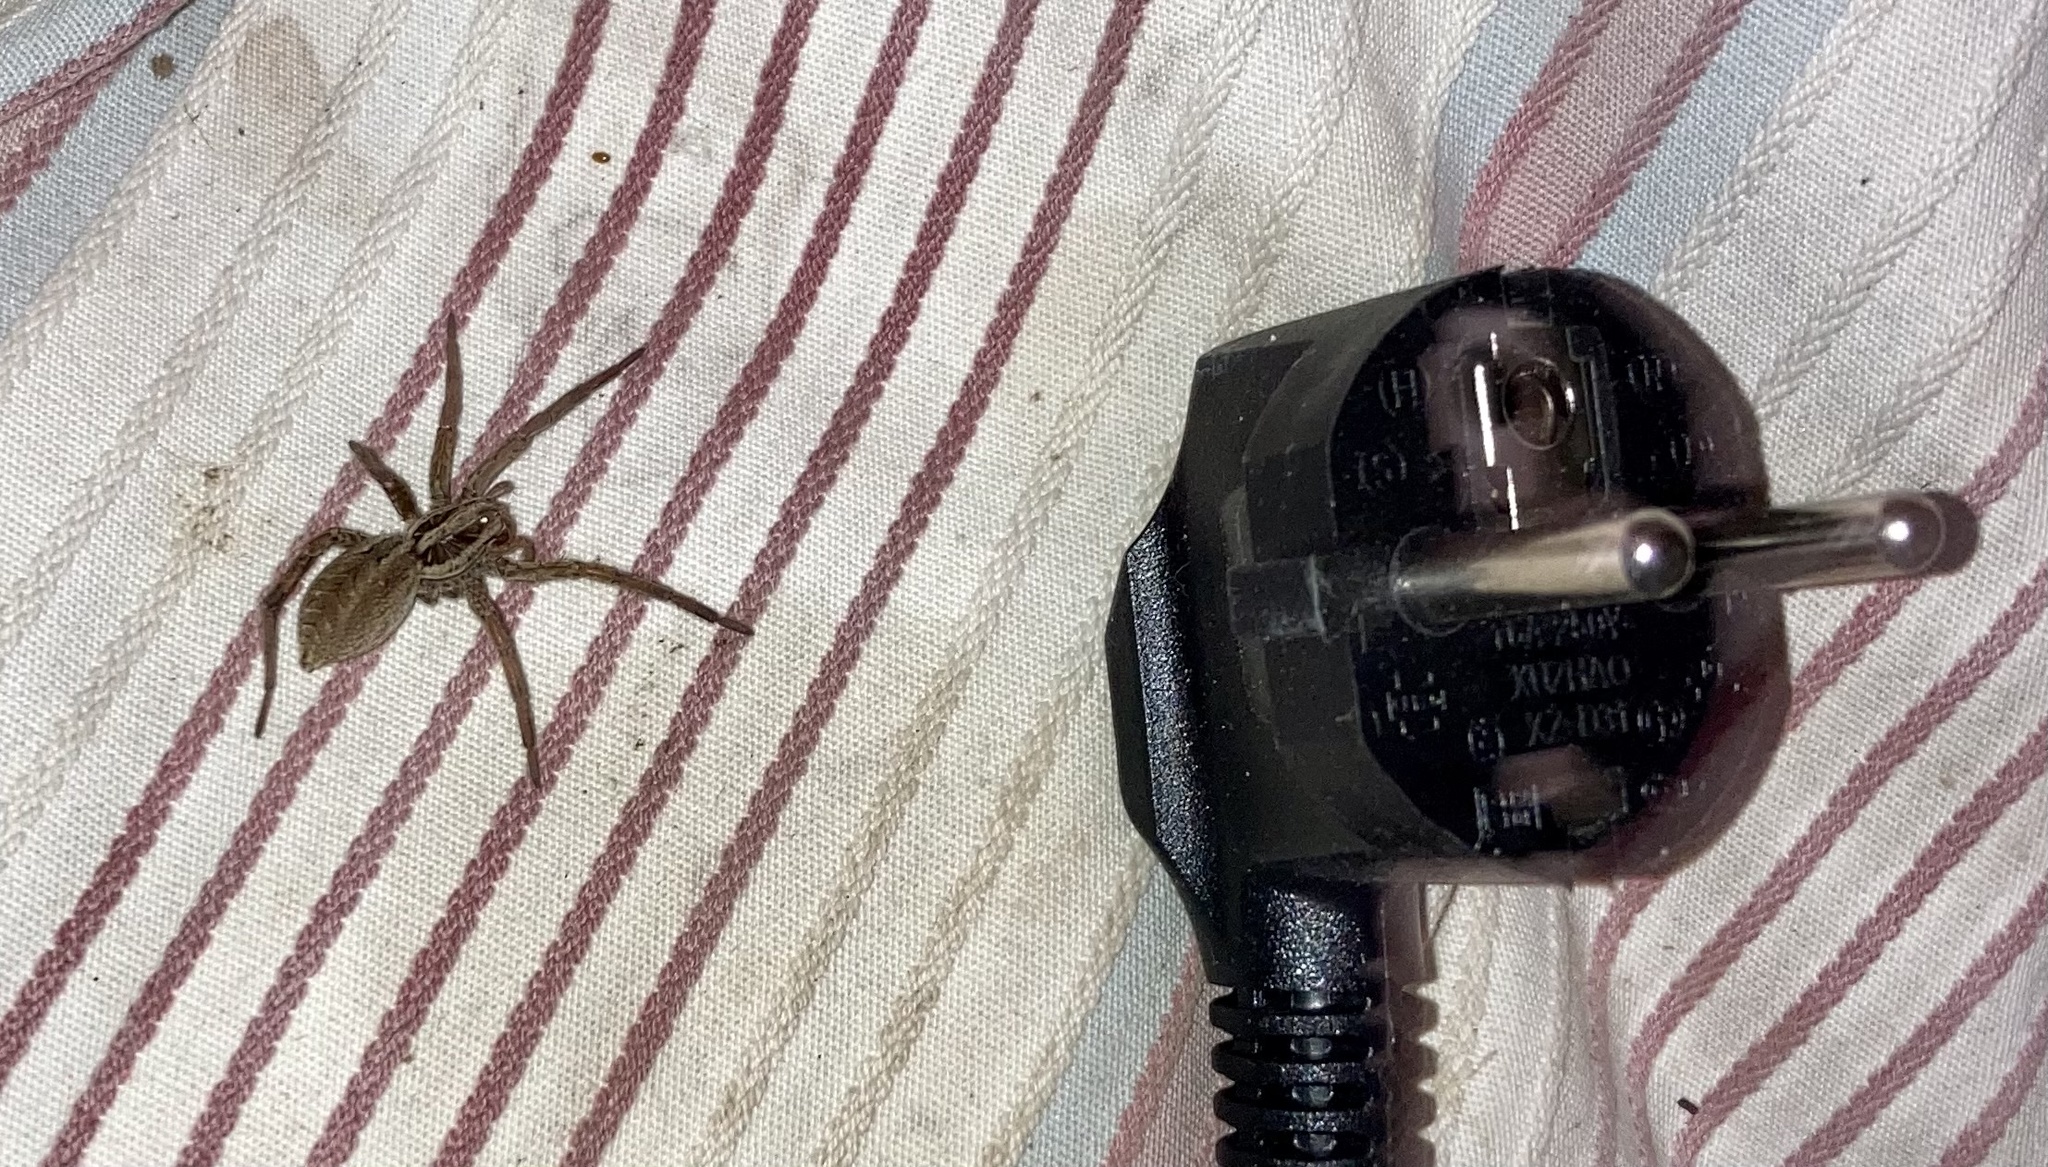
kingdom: Animalia
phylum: Arthropoda
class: Arachnida
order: Araneae
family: Lycosidae
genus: Hogna
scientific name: Hogna radiata
